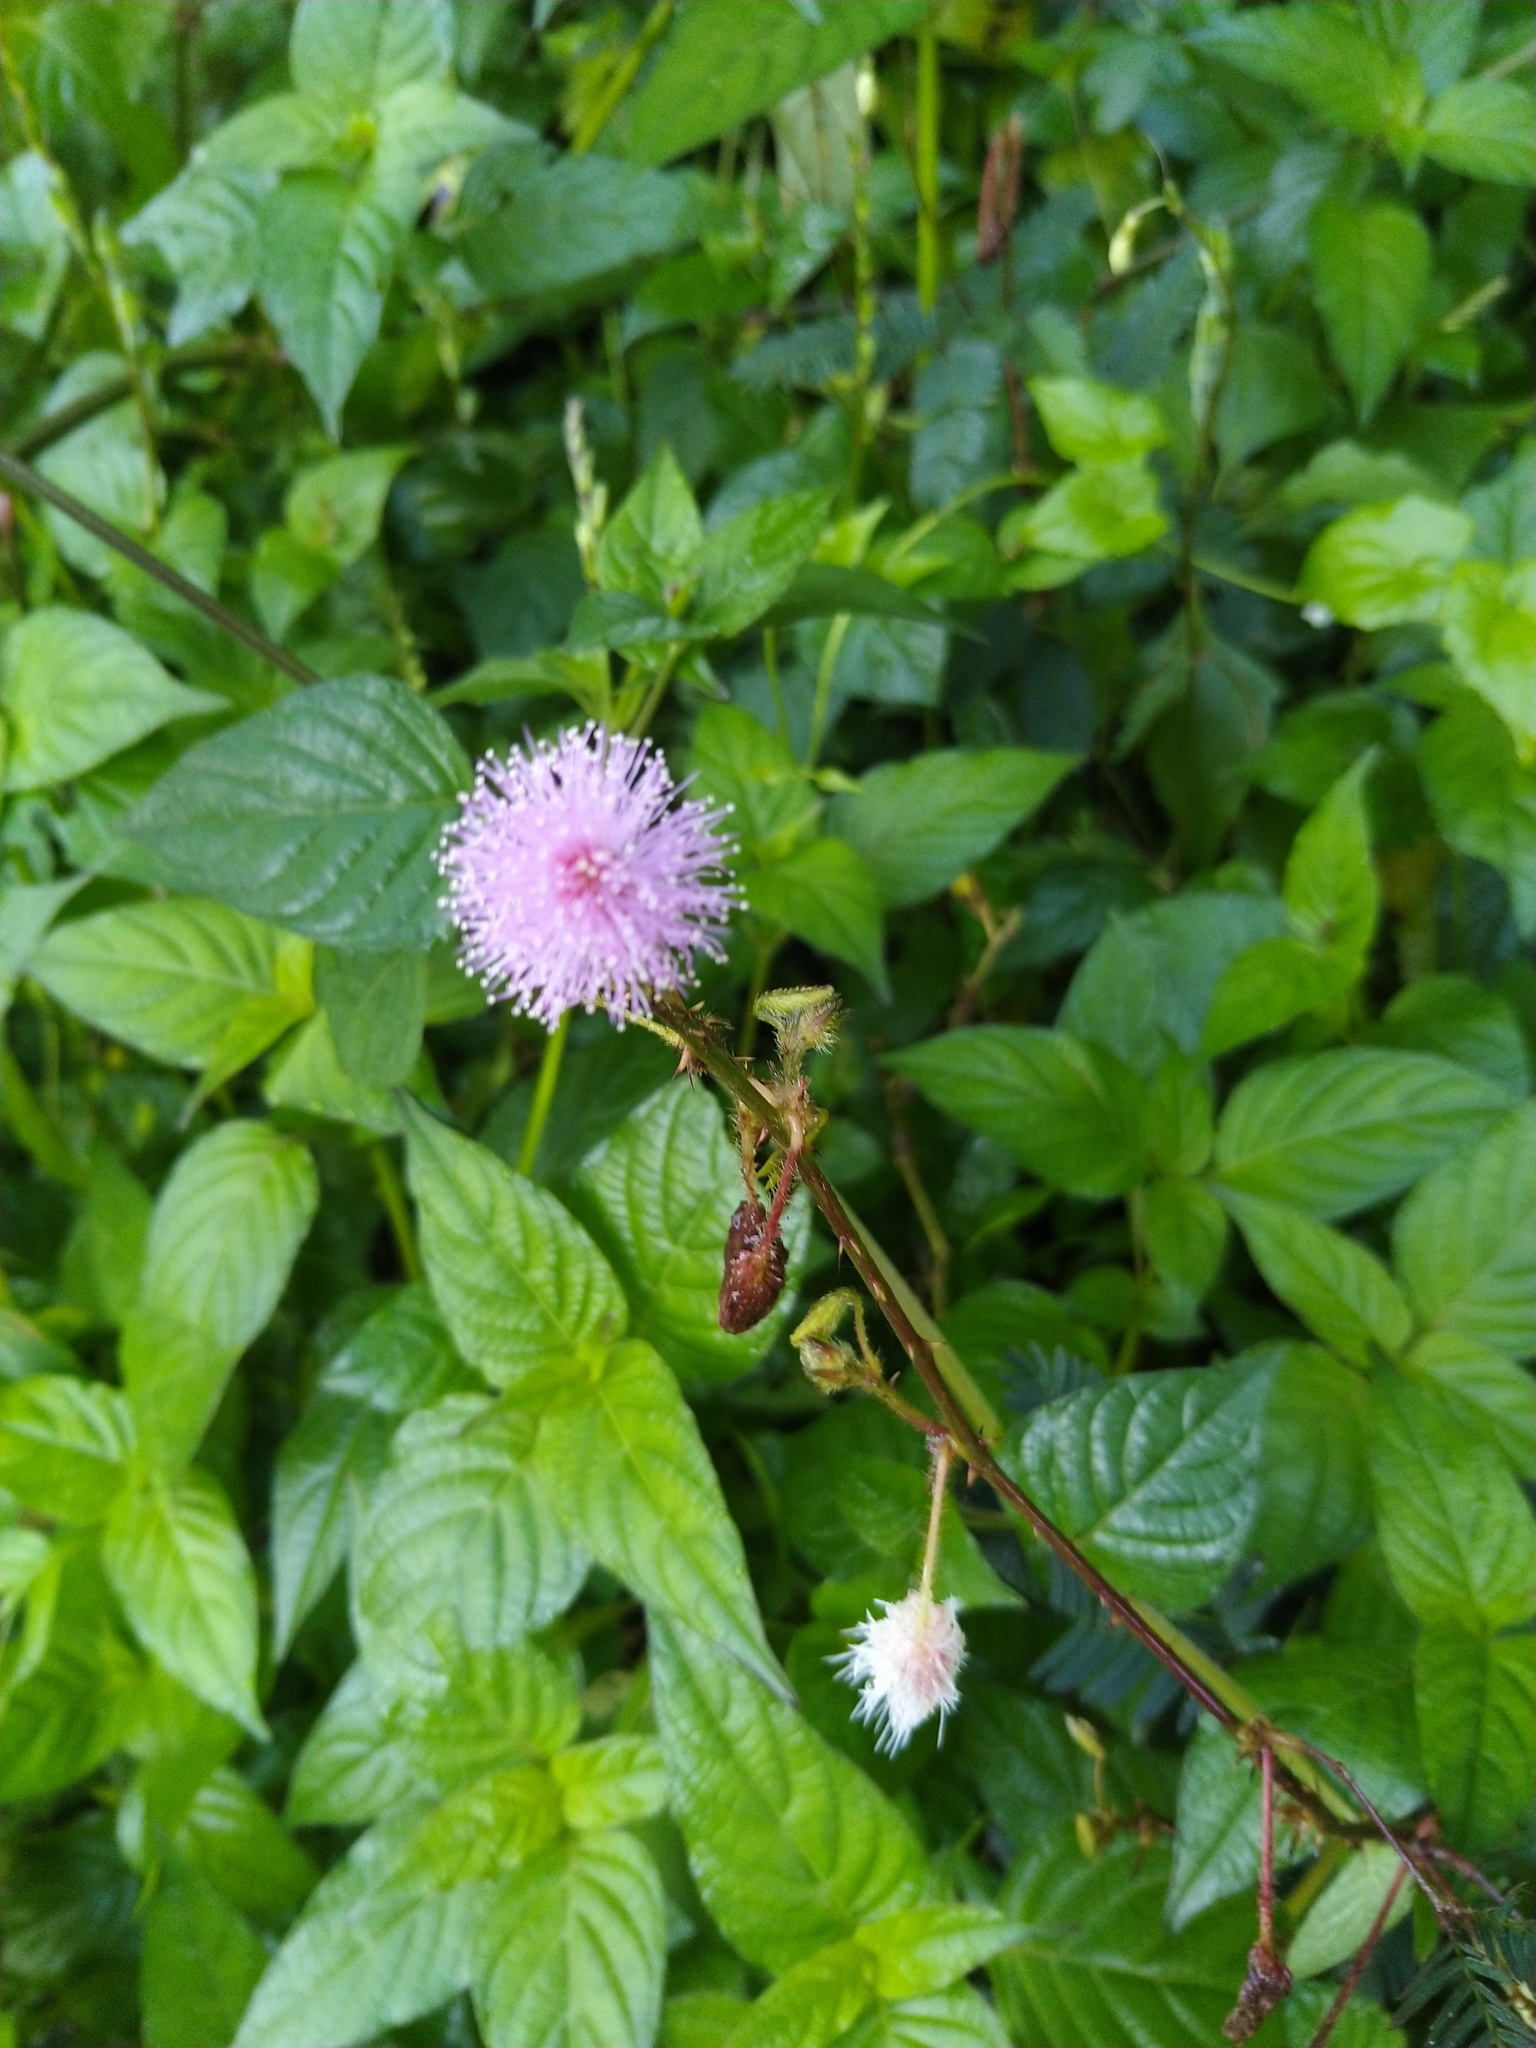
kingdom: Plantae
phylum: Tracheophyta
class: Magnoliopsida
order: Fabales
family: Fabaceae
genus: Mimosa
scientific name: Mimosa pudica
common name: Sensitive plant
